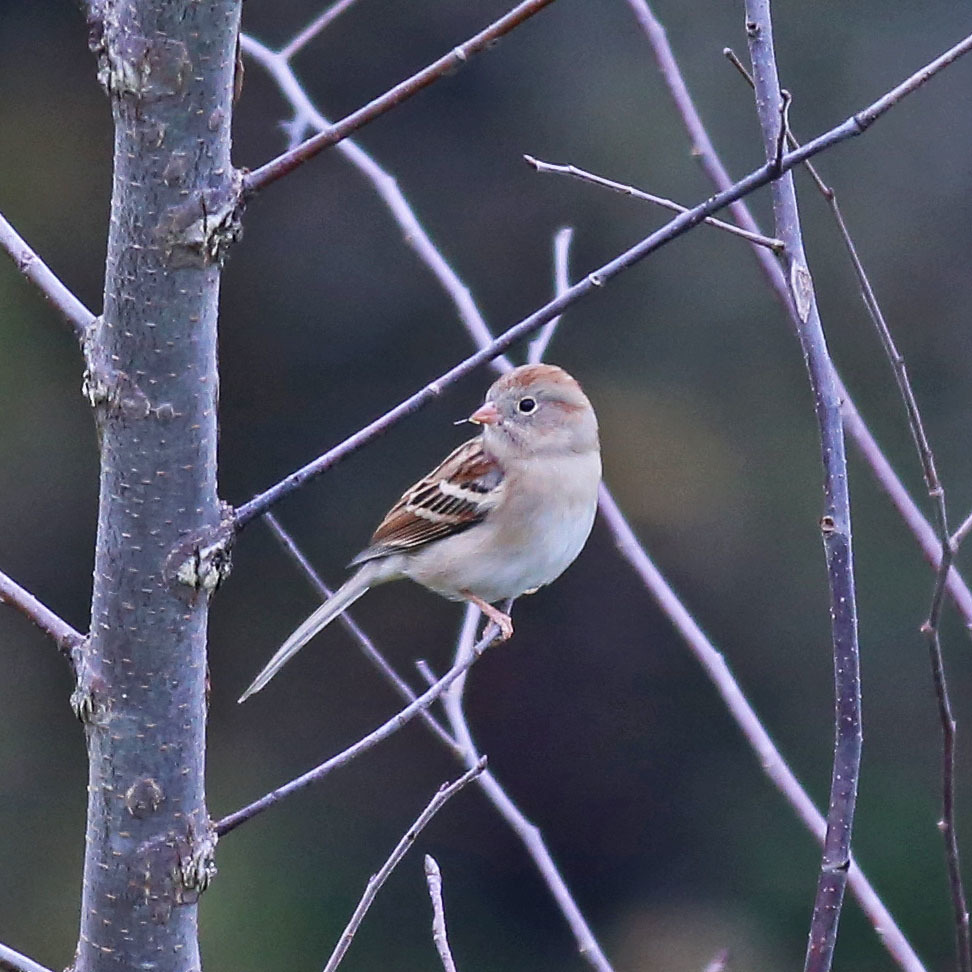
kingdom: Animalia
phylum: Chordata
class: Aves
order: Passeriformes
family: Passerellidae
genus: Spizella
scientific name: Spizella pusilla
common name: Field sparrow
